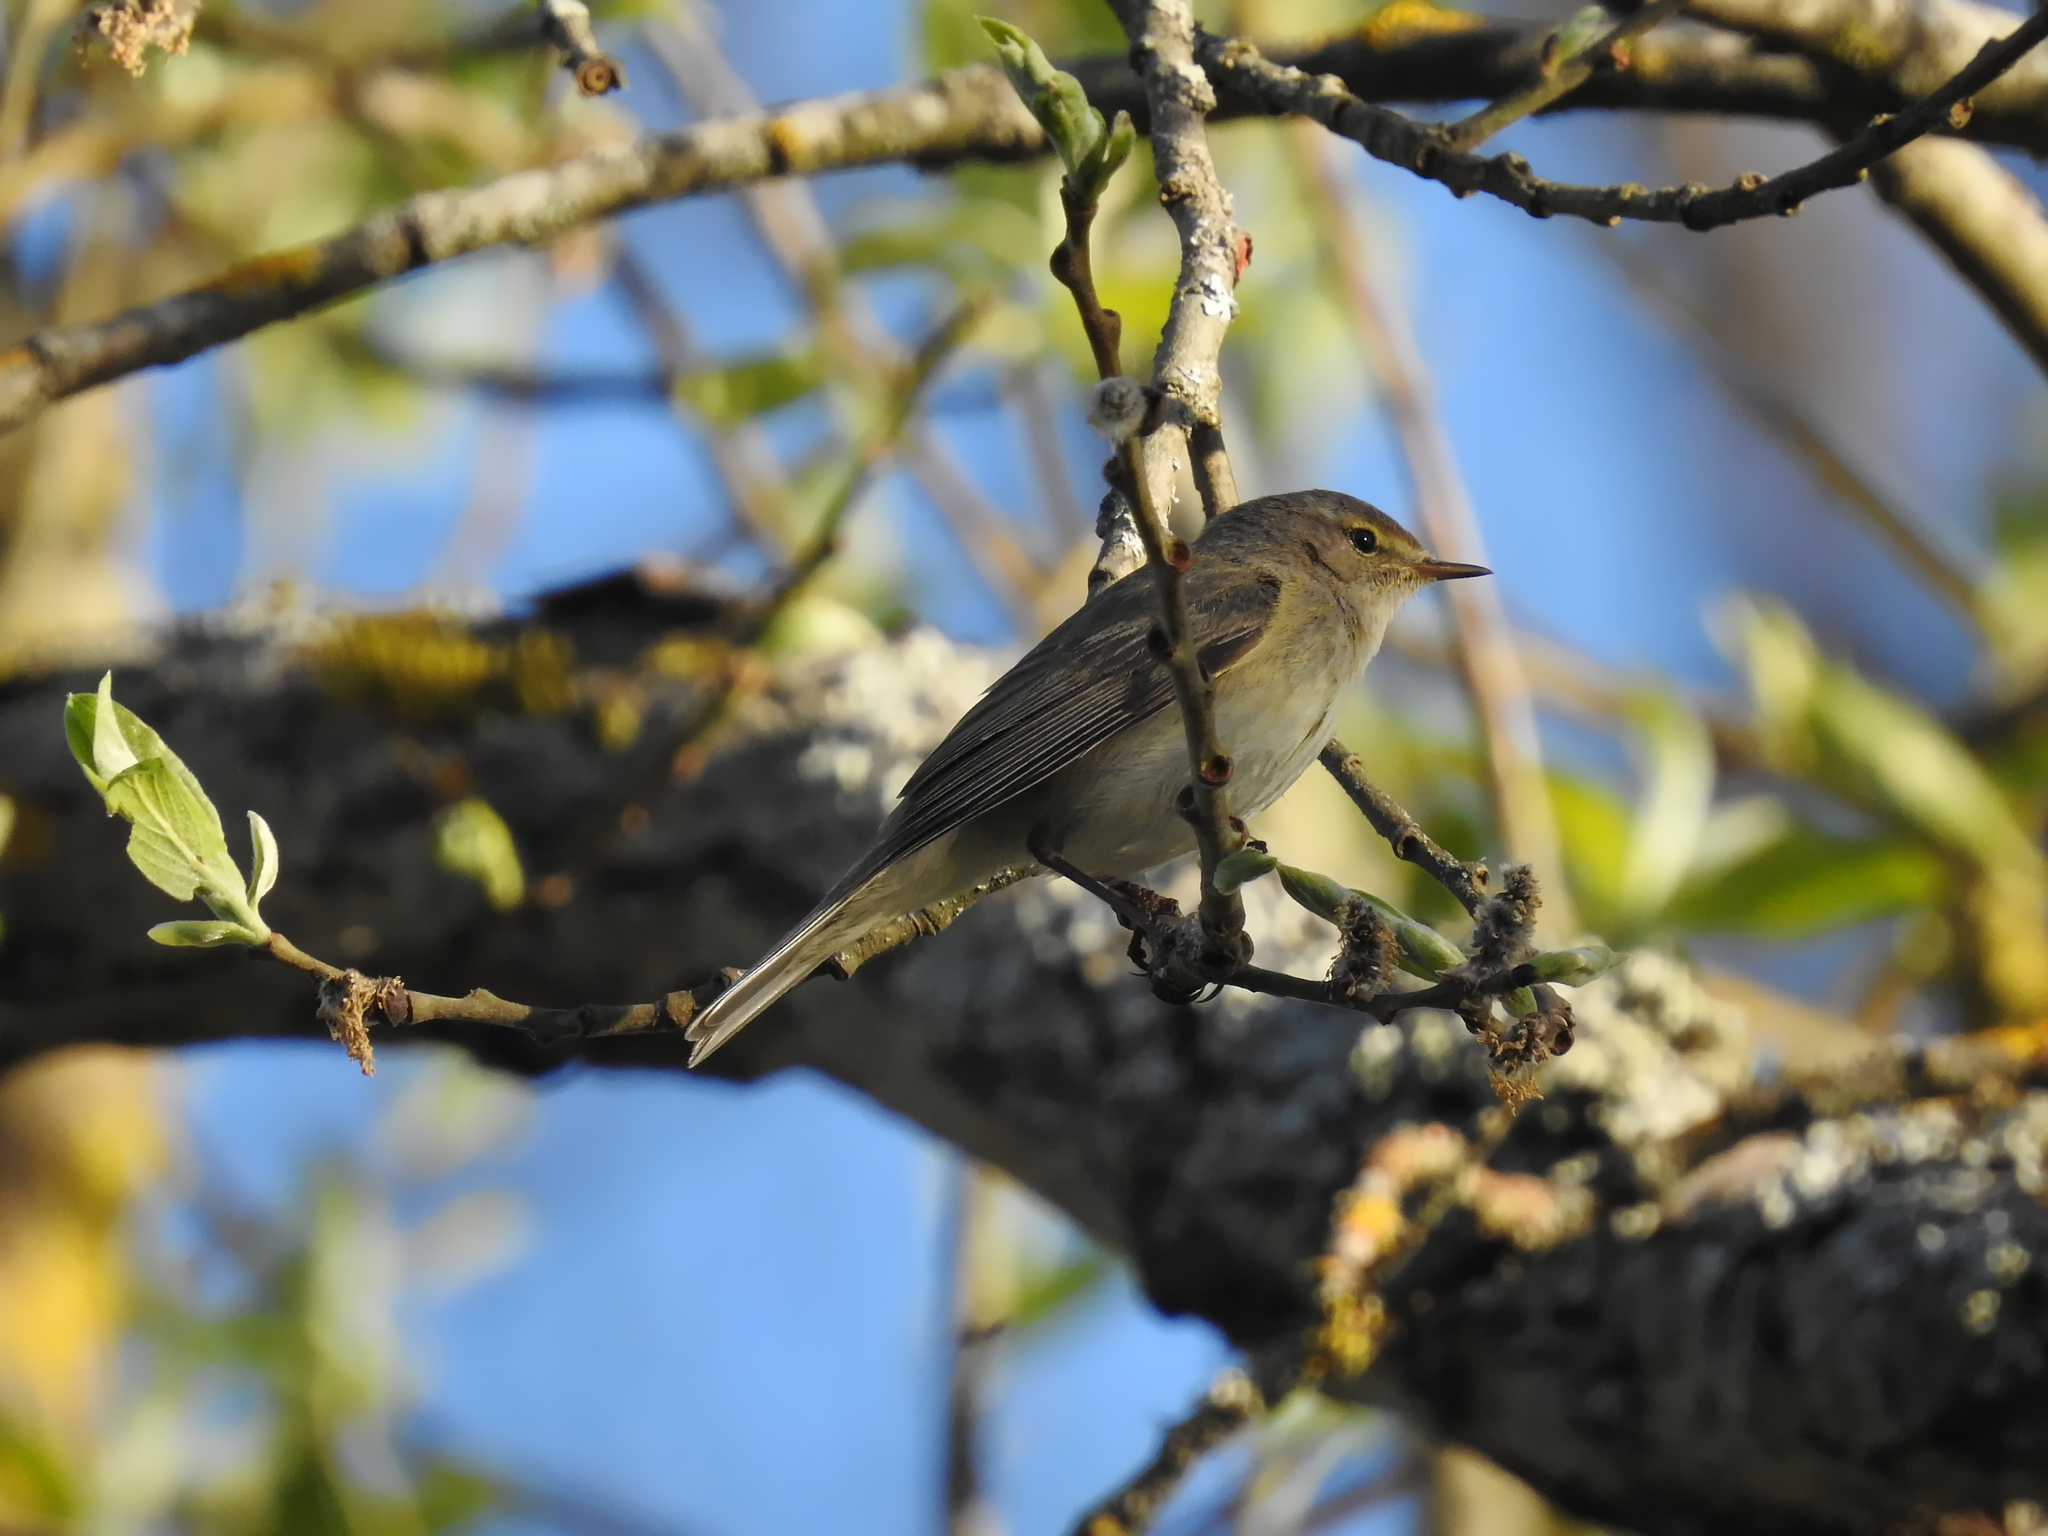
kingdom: Animalia
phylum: Chordata
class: Aves
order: Passeriformes
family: Phylloscopidae
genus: Phylloscopus
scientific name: Phylloscopus trochilus
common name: Willow warbler
